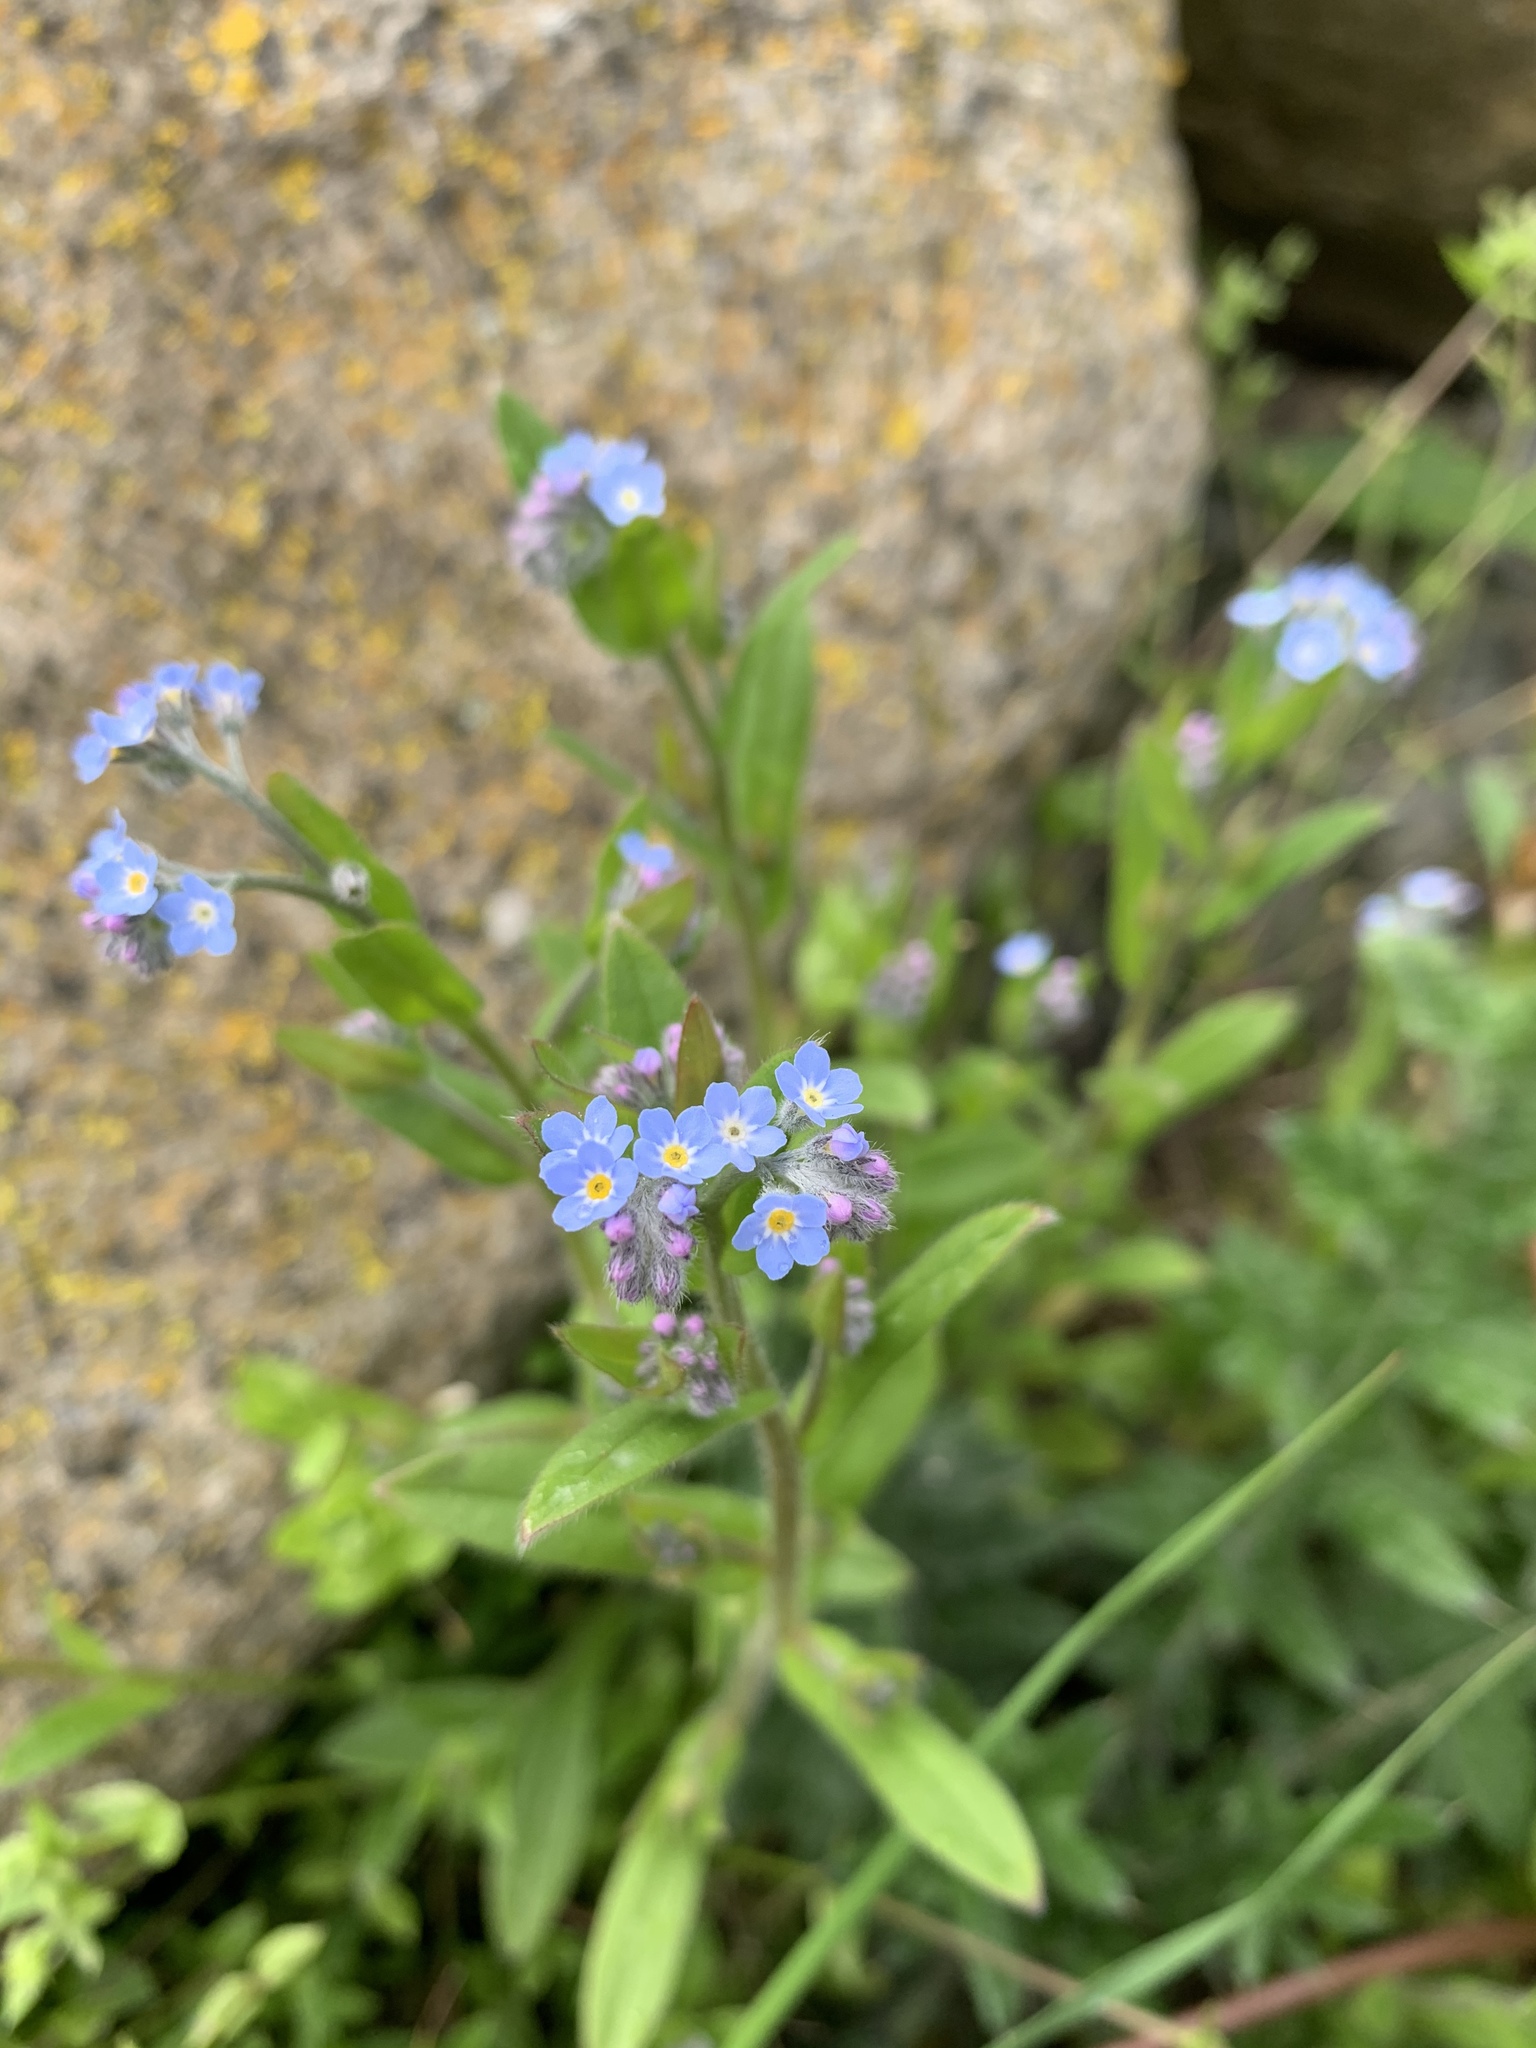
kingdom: Plantae
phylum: Tracheophyta
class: Magnoliopsida
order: Boraginales
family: Boraginaceae
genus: Myosotis
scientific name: Myosotis ramosissima
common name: Early forget-me-not
